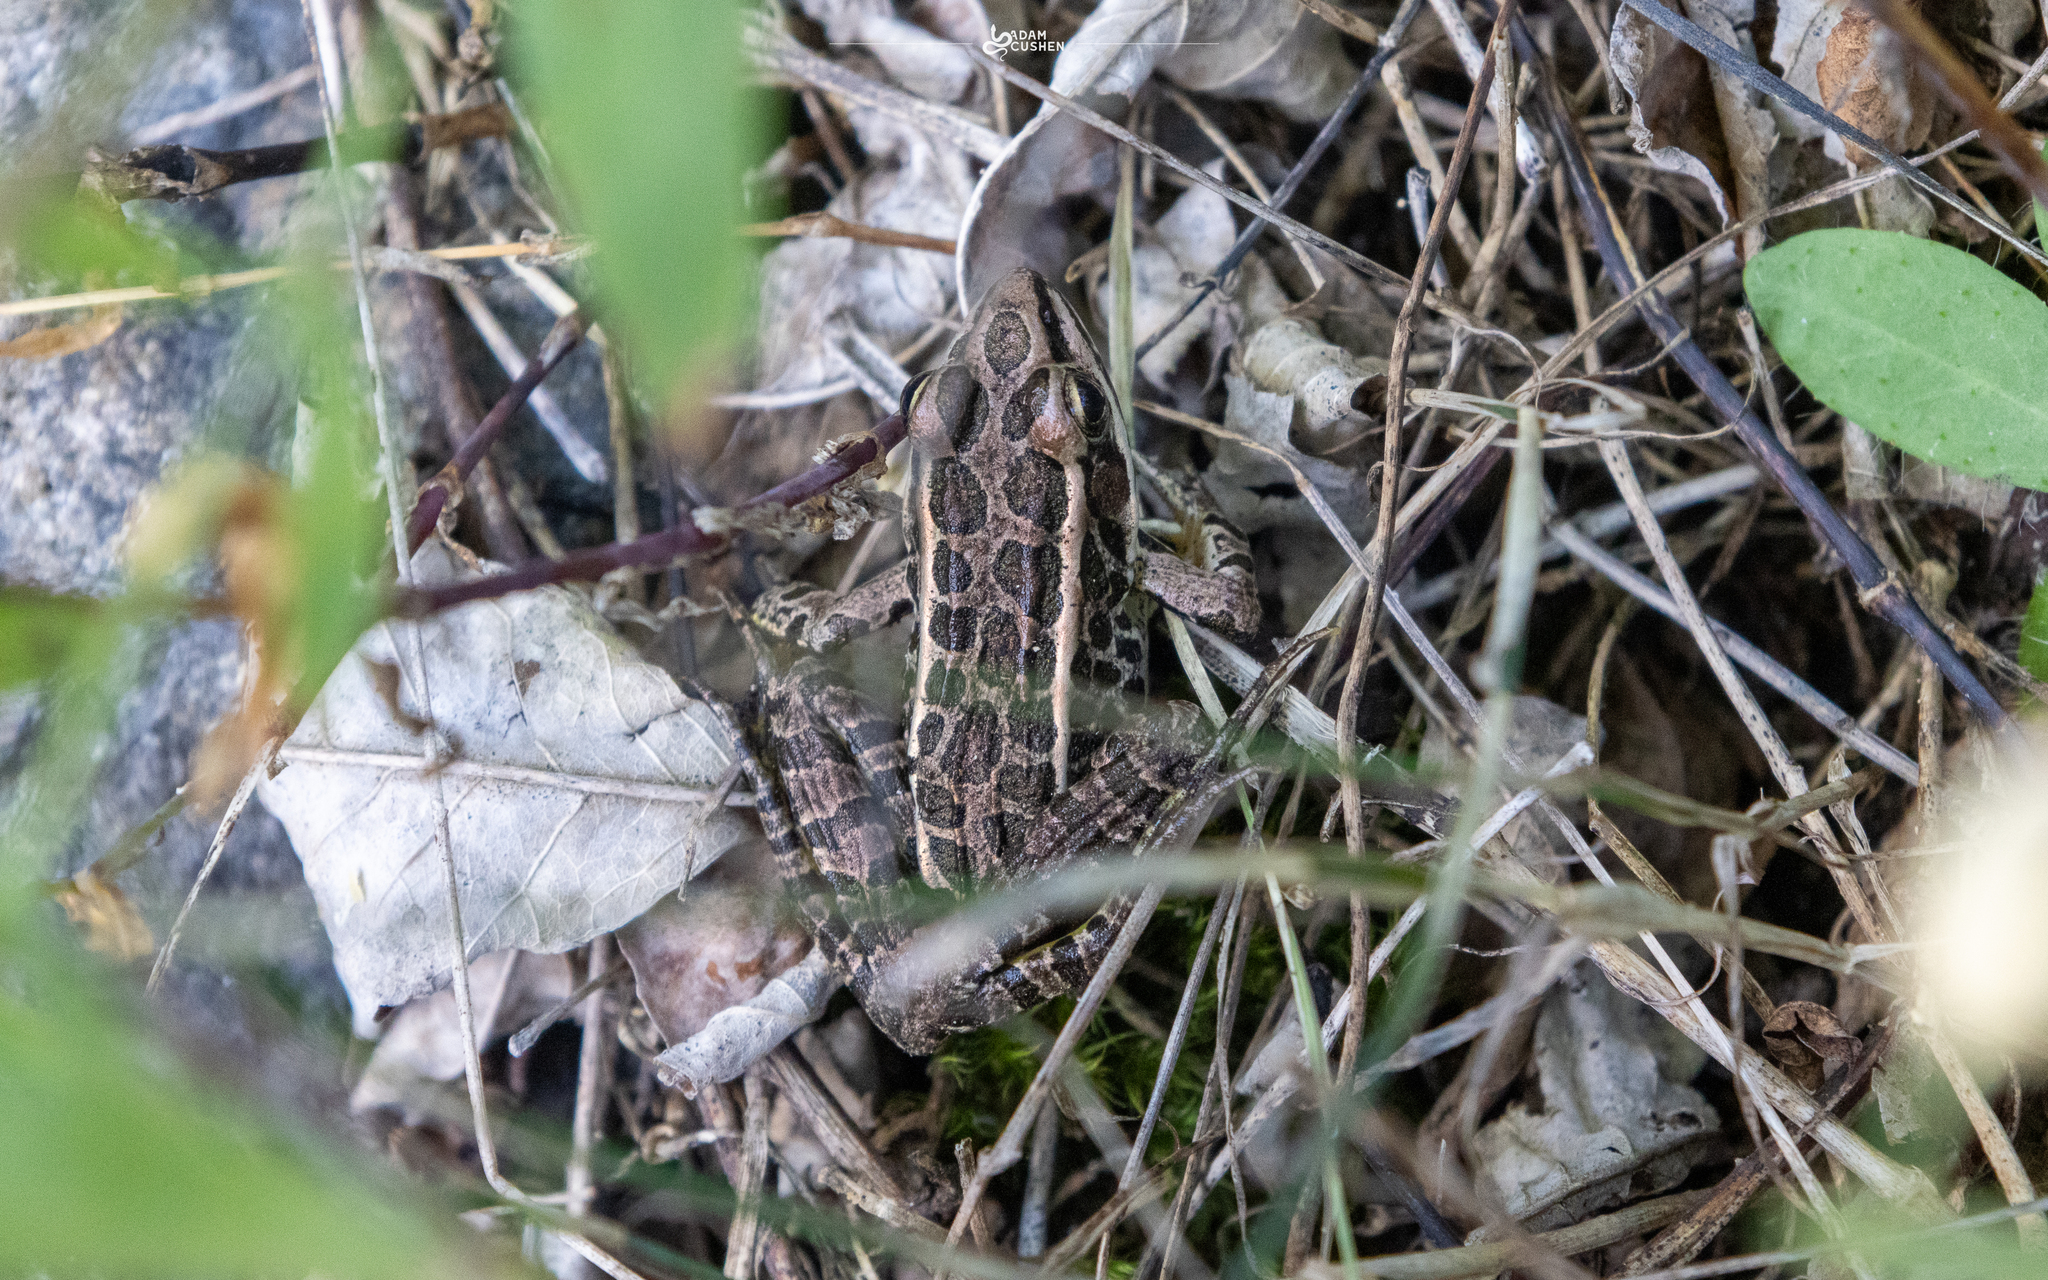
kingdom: Animalia
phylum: Chordata
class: Amphibia
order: Anura
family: Ranidae
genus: Lithobates
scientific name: Lithobates palustris
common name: Pickerel frog
